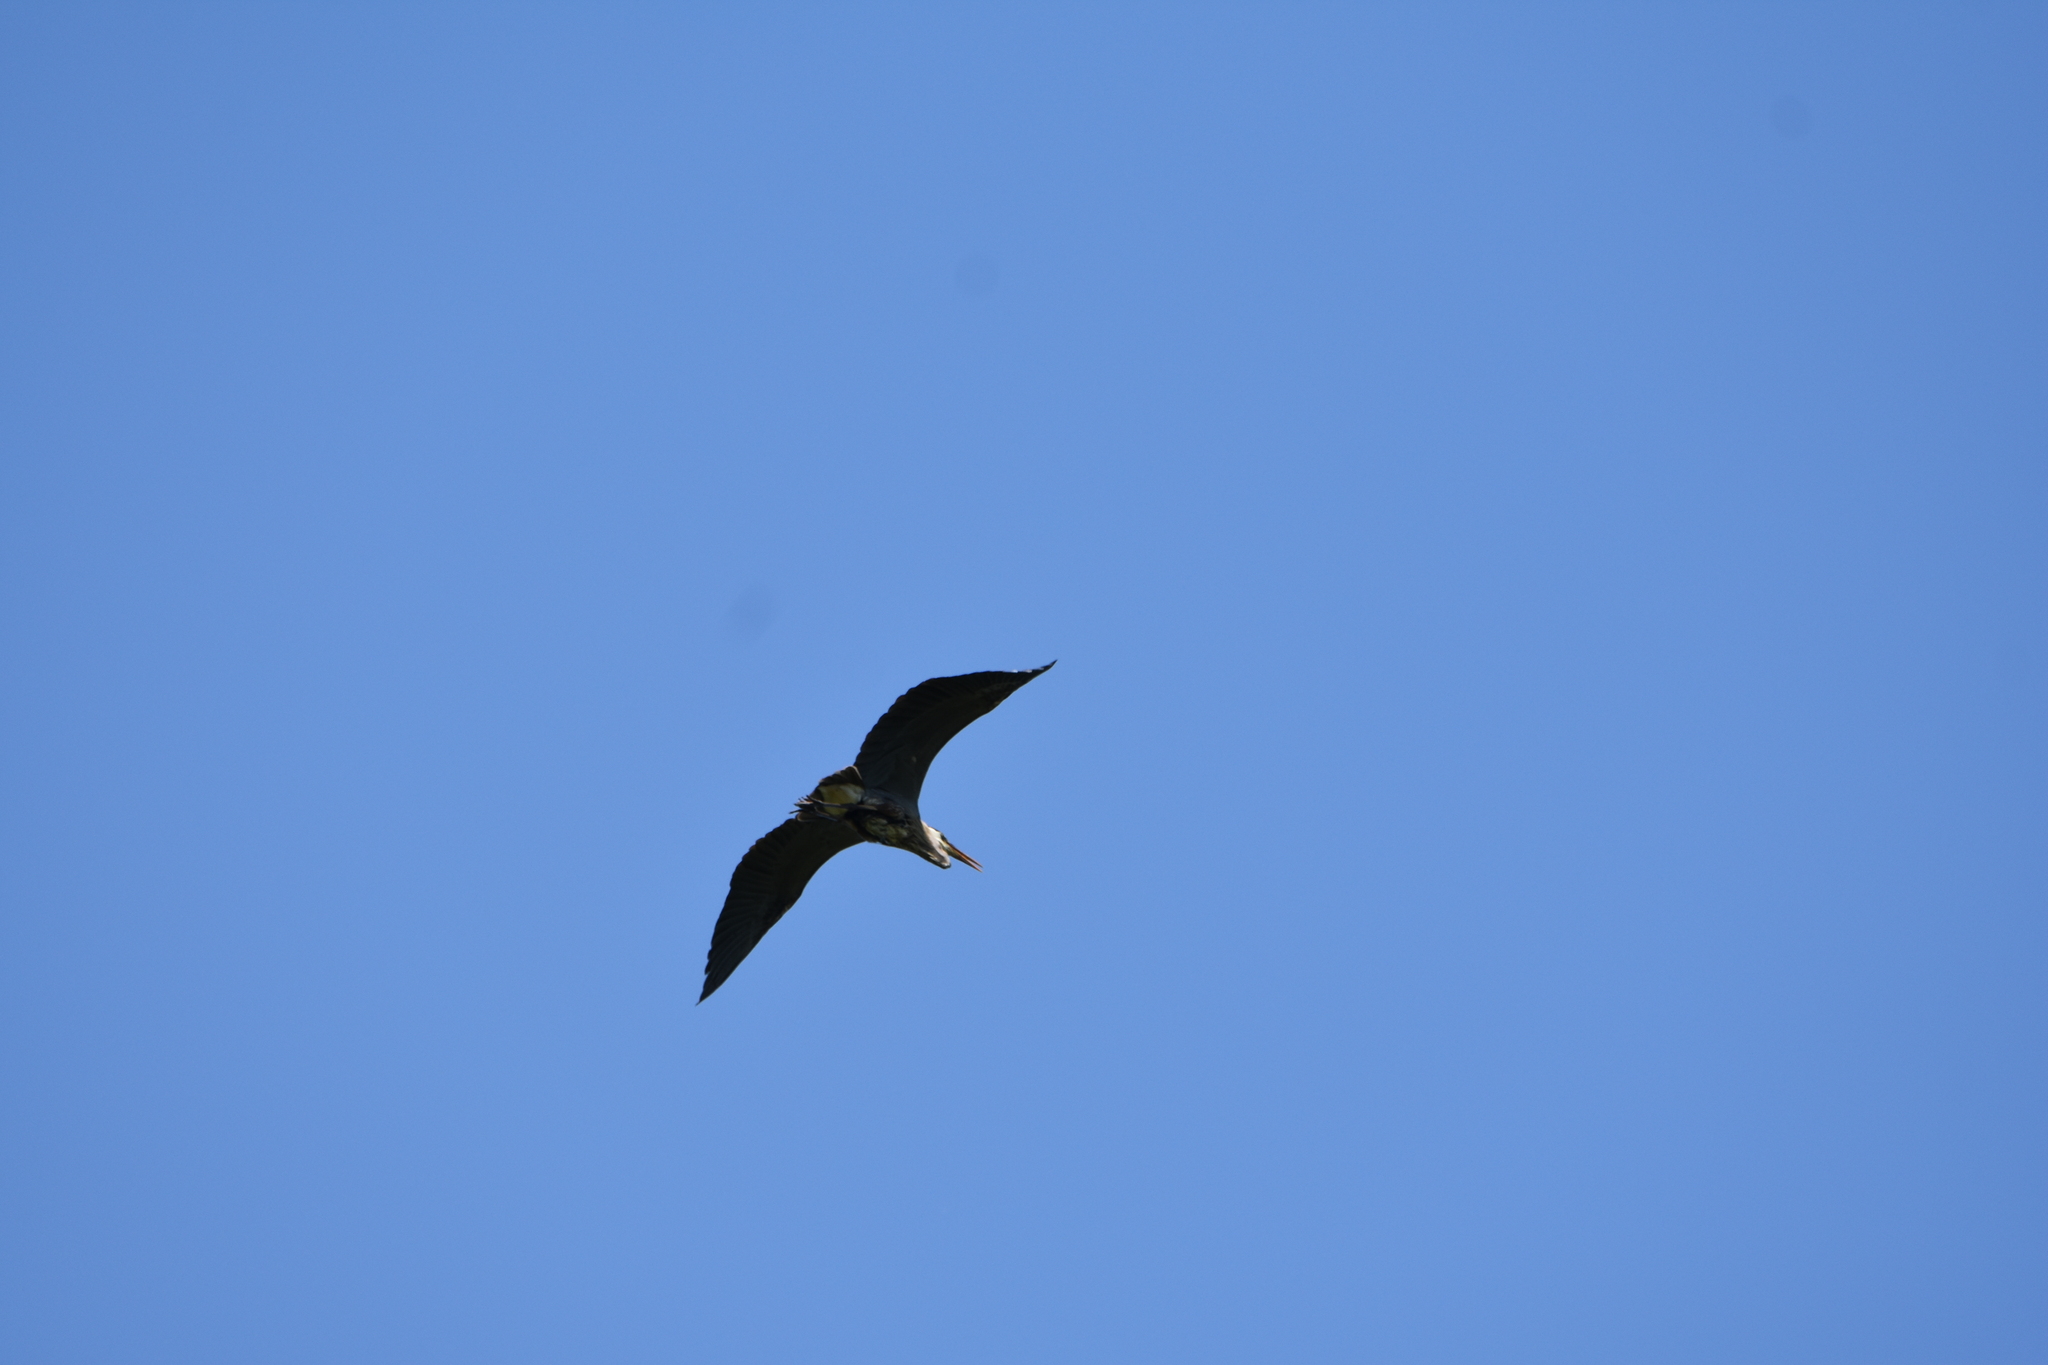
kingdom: Animalia
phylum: Chordata
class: Aves
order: Pelecaniformes
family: Ardeidae
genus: Ardea
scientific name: Ardea herodias
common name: Great blue heron
